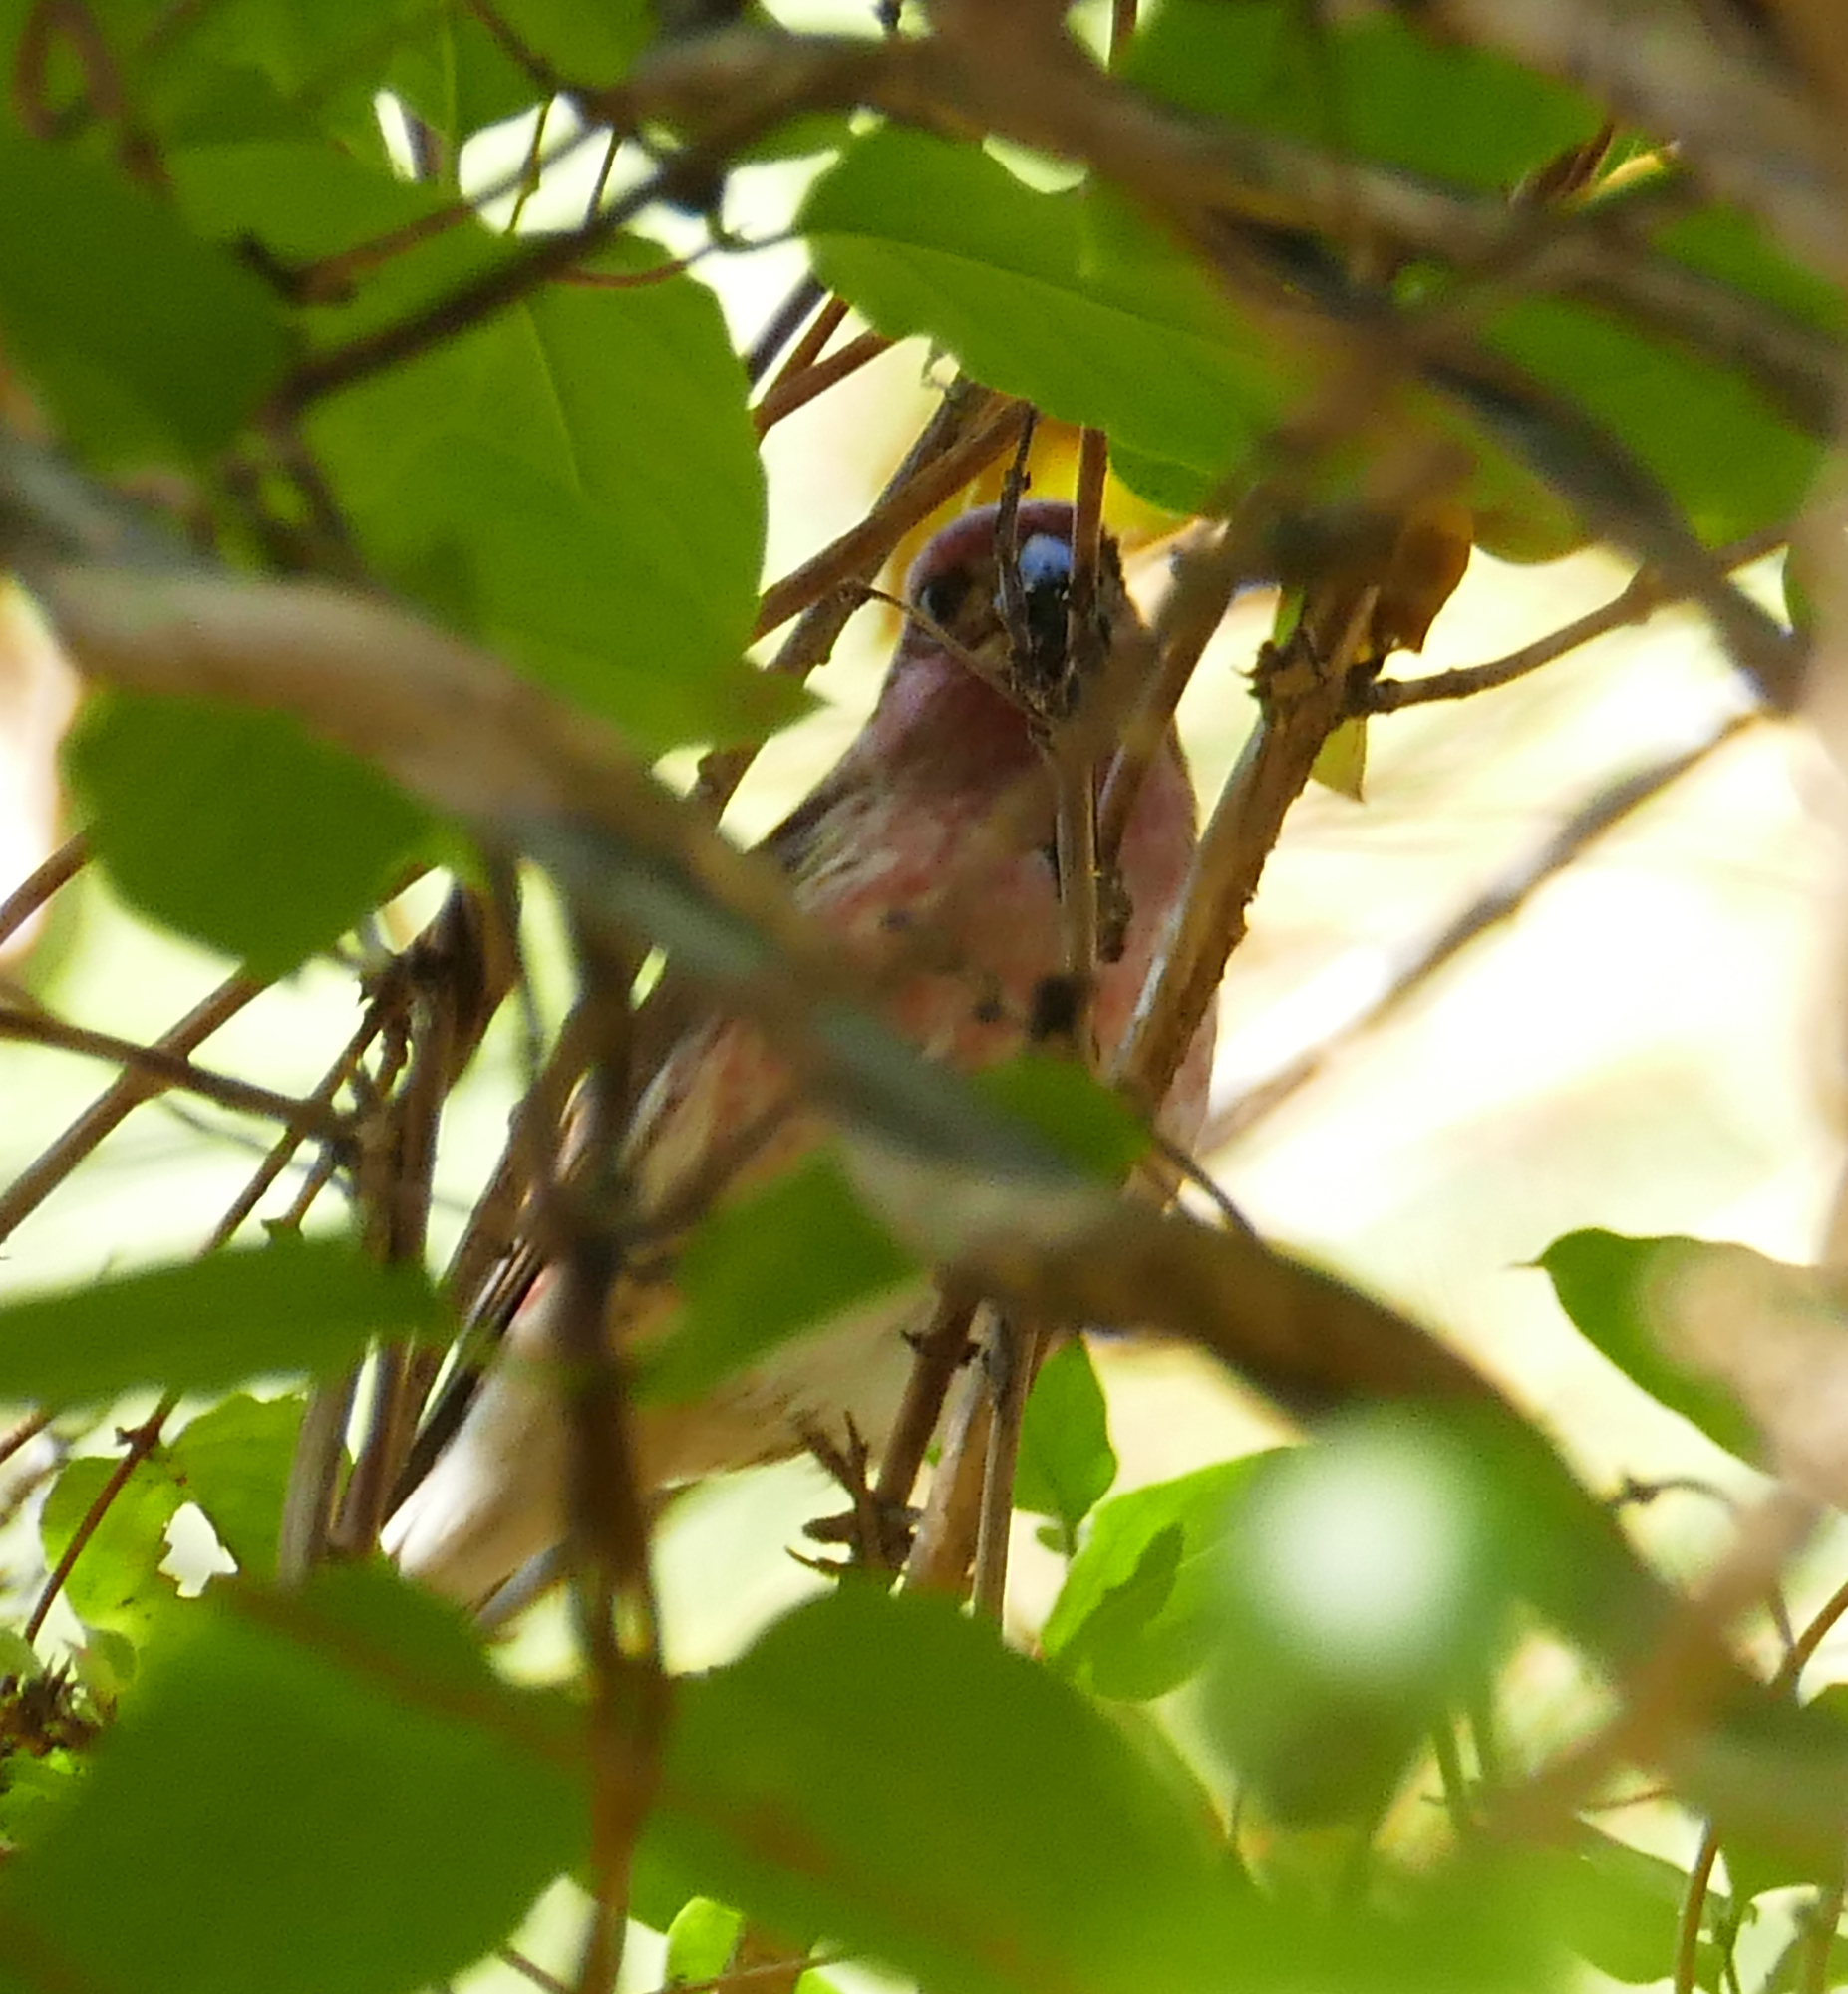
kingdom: Animalia
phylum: Chordata
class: Aves
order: Passeriformes
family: Fringillidae
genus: Haemorhous
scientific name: Haemorhous purpureus
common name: Purple finch
